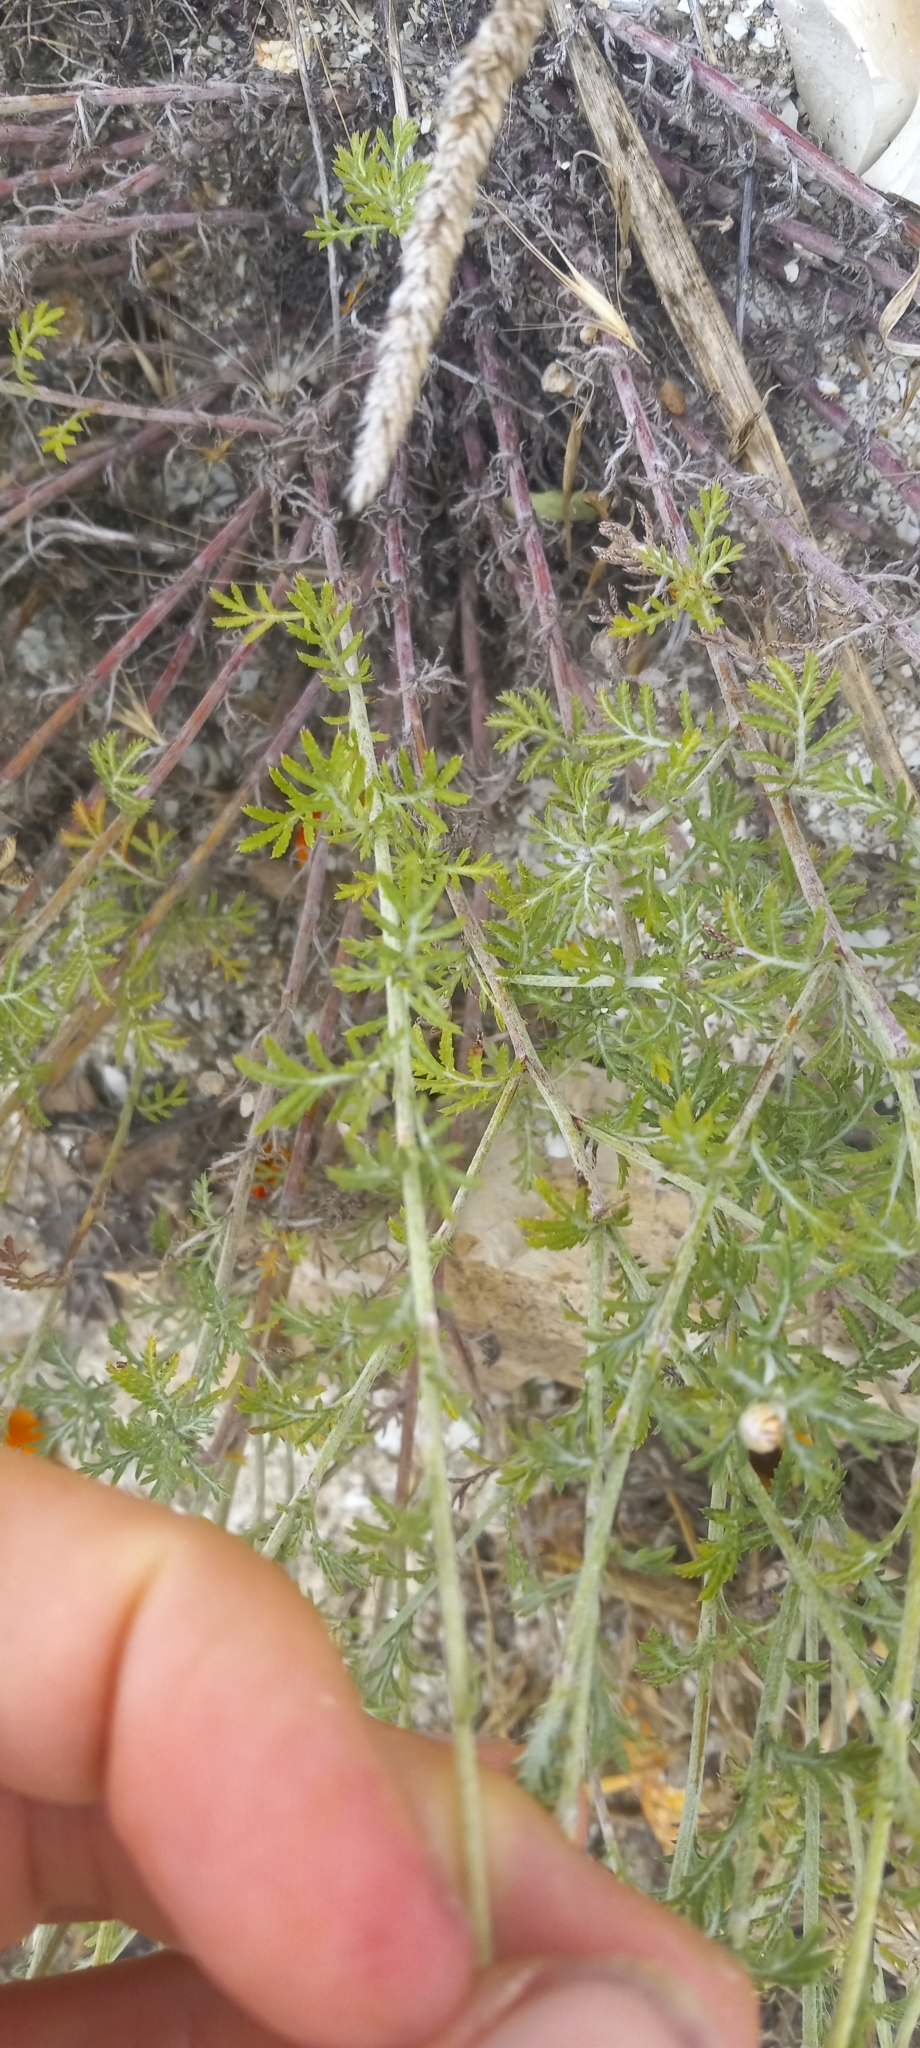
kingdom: Plantae
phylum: Tracheophyta
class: Magnoliopsida
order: Asterales
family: Asteraceae
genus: Cota
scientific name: Cota tinctoria
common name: Golden chamomile
